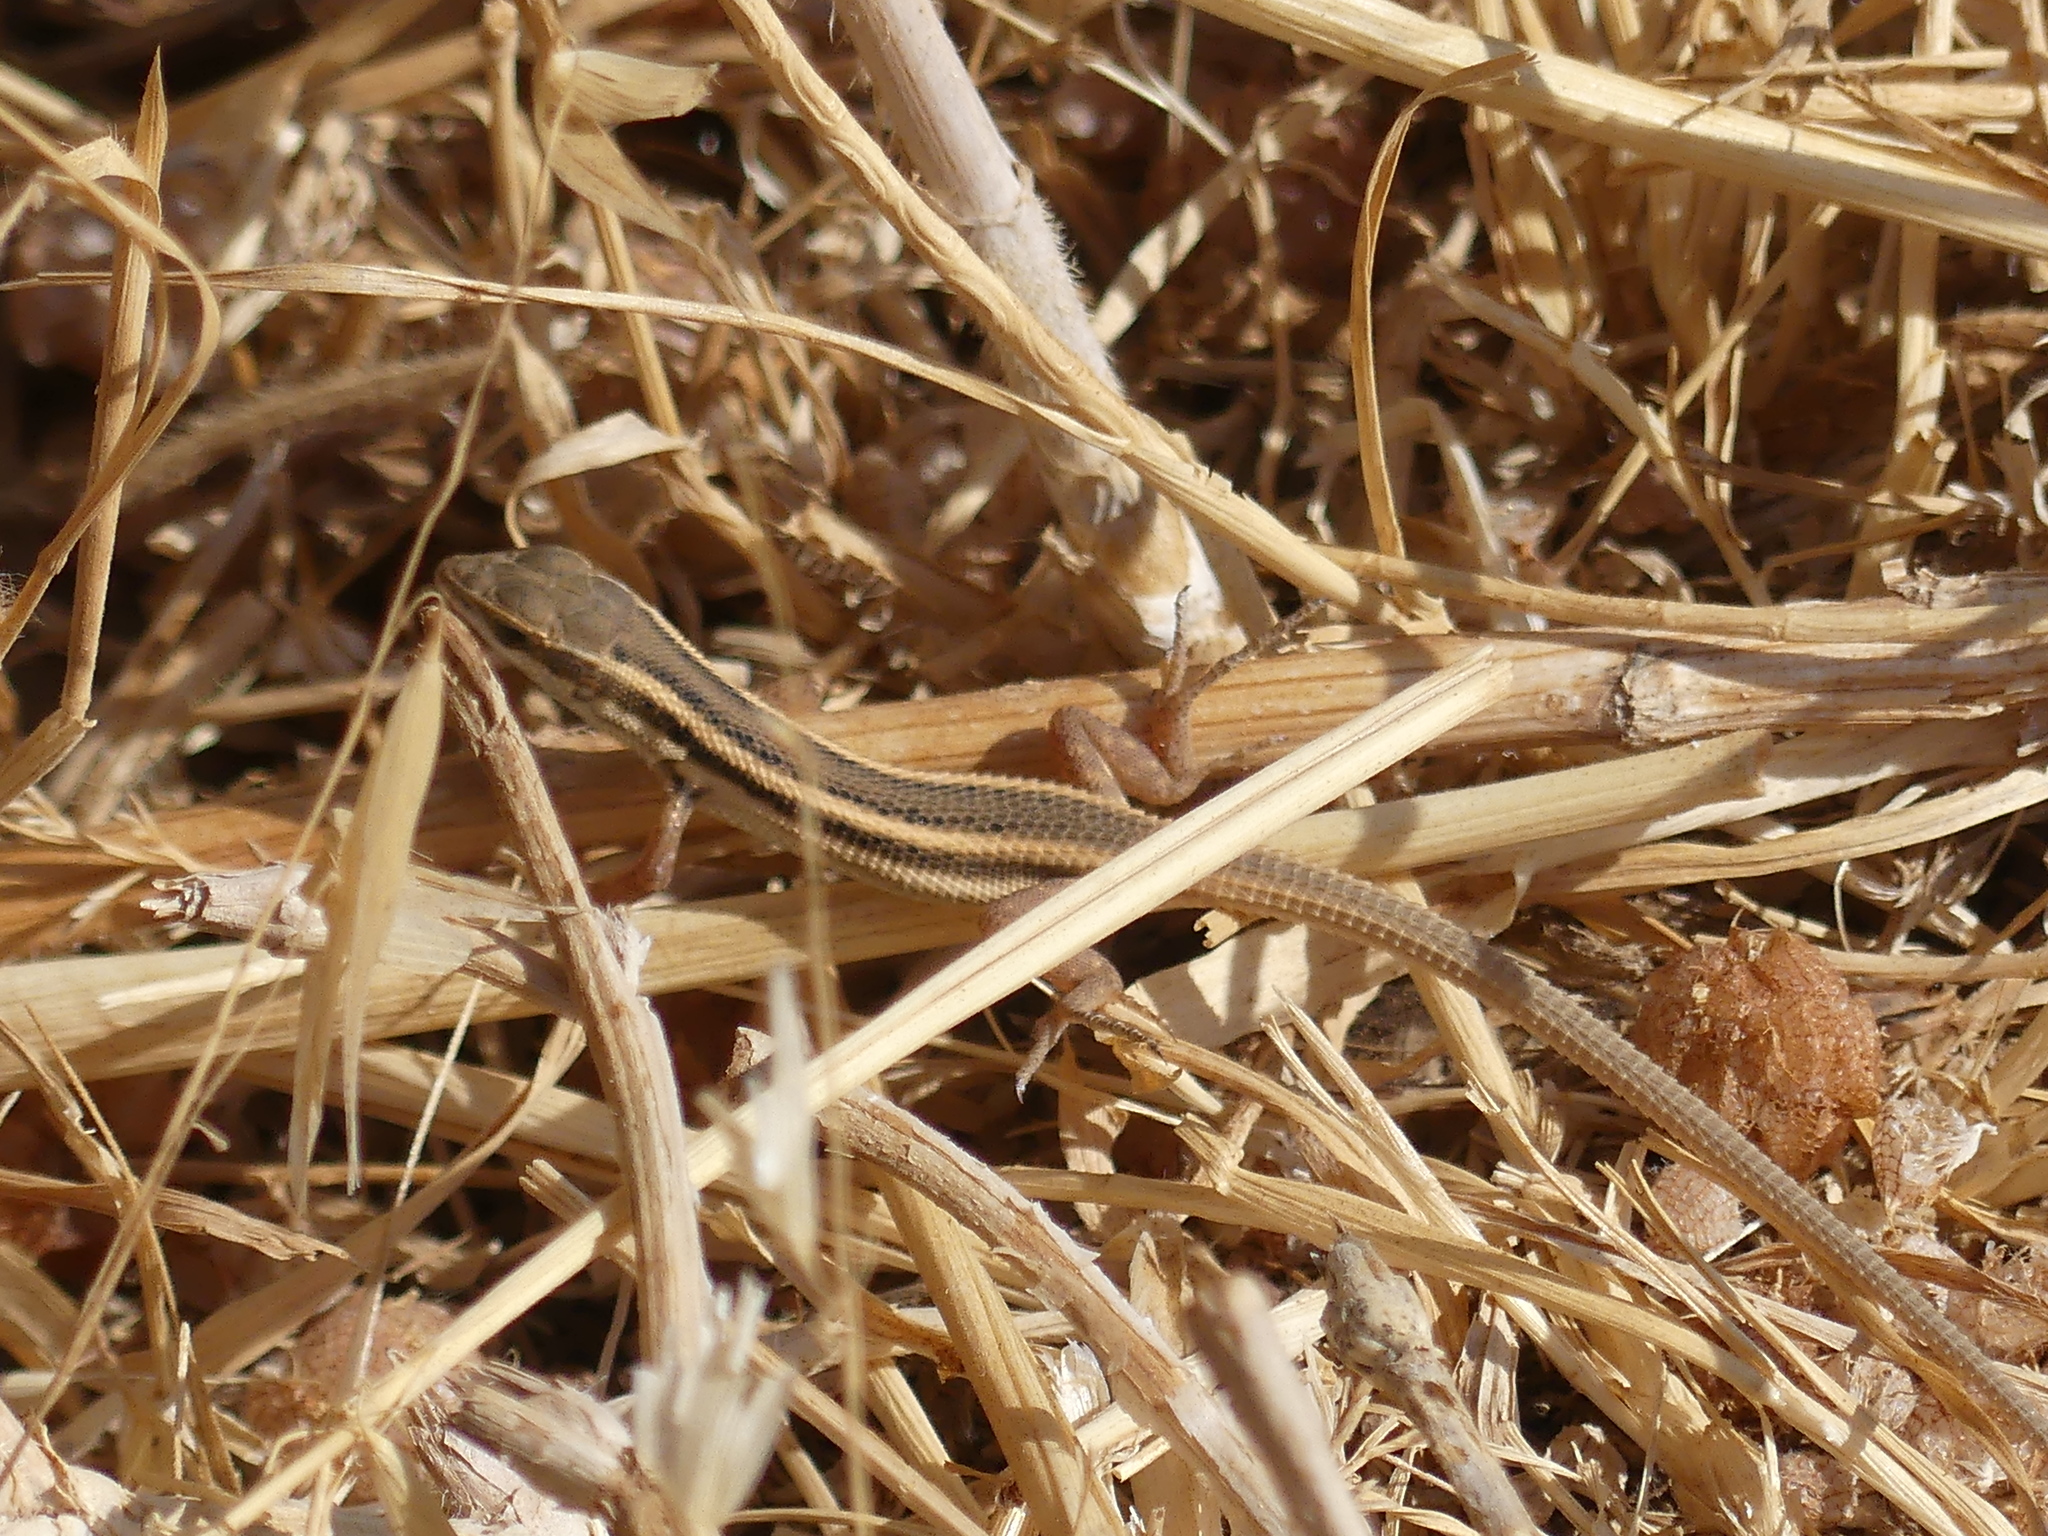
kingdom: Animalia
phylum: Chordata
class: Squamata
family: Lacertidae
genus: Ophisops
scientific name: Ophisops elegans
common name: Snake-eyed lizard
